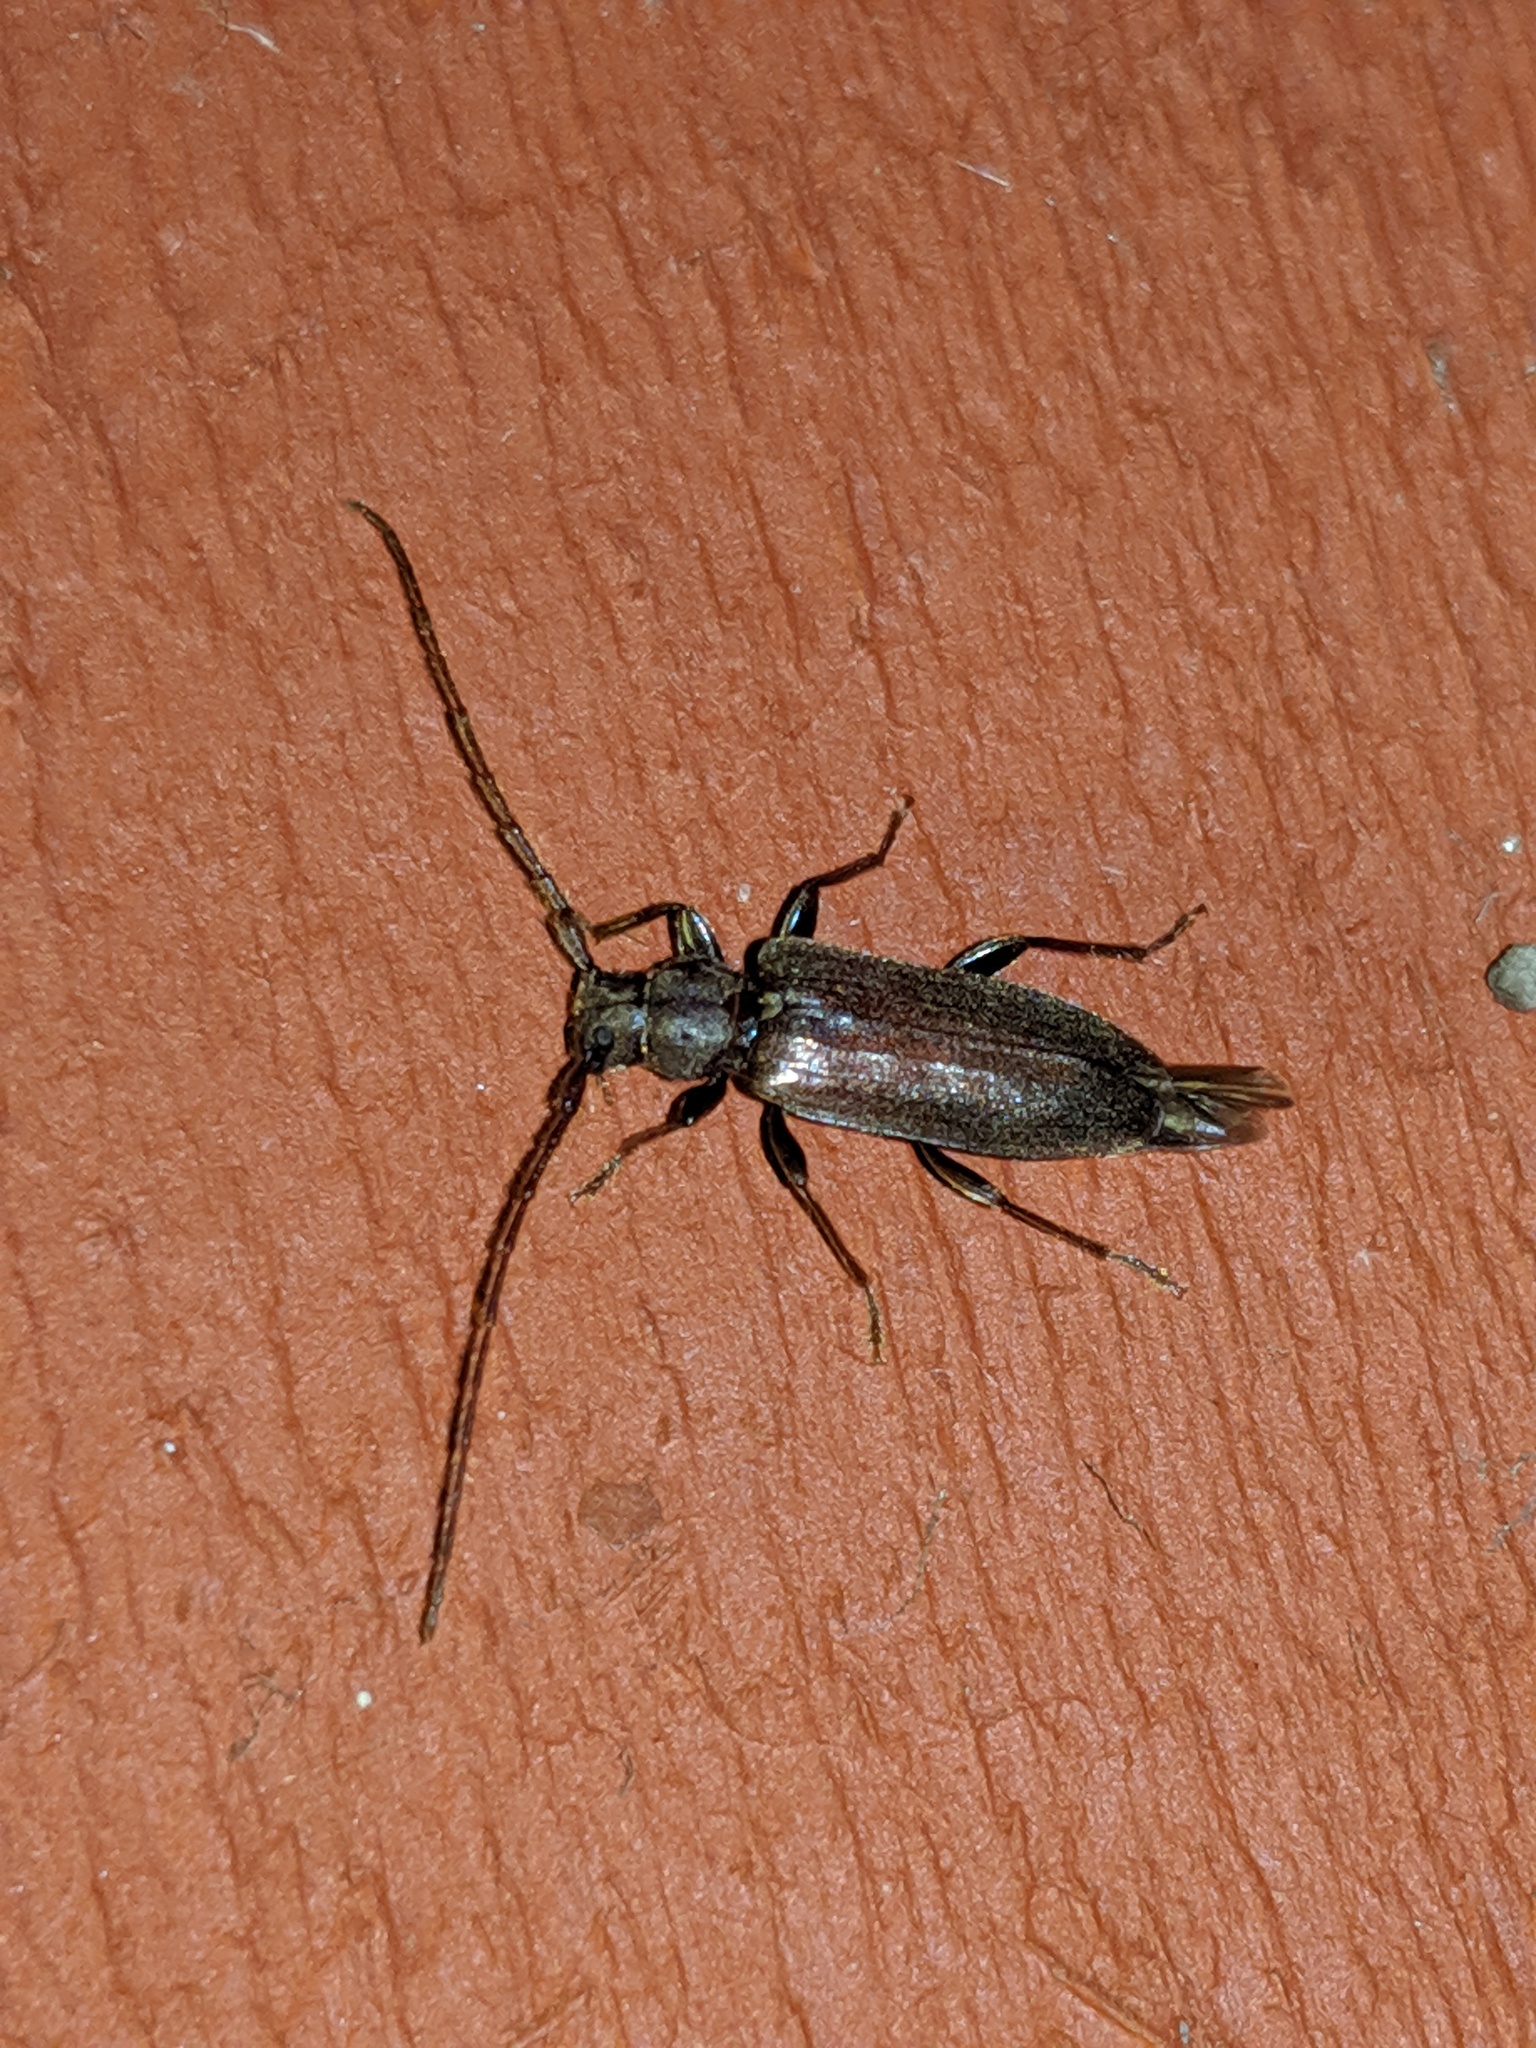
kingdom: Animalia
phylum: Arthropoda
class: Insecta
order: Coleoptera
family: Cerambycidae
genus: Opsimus
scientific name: Opsimus quadrilineatus
